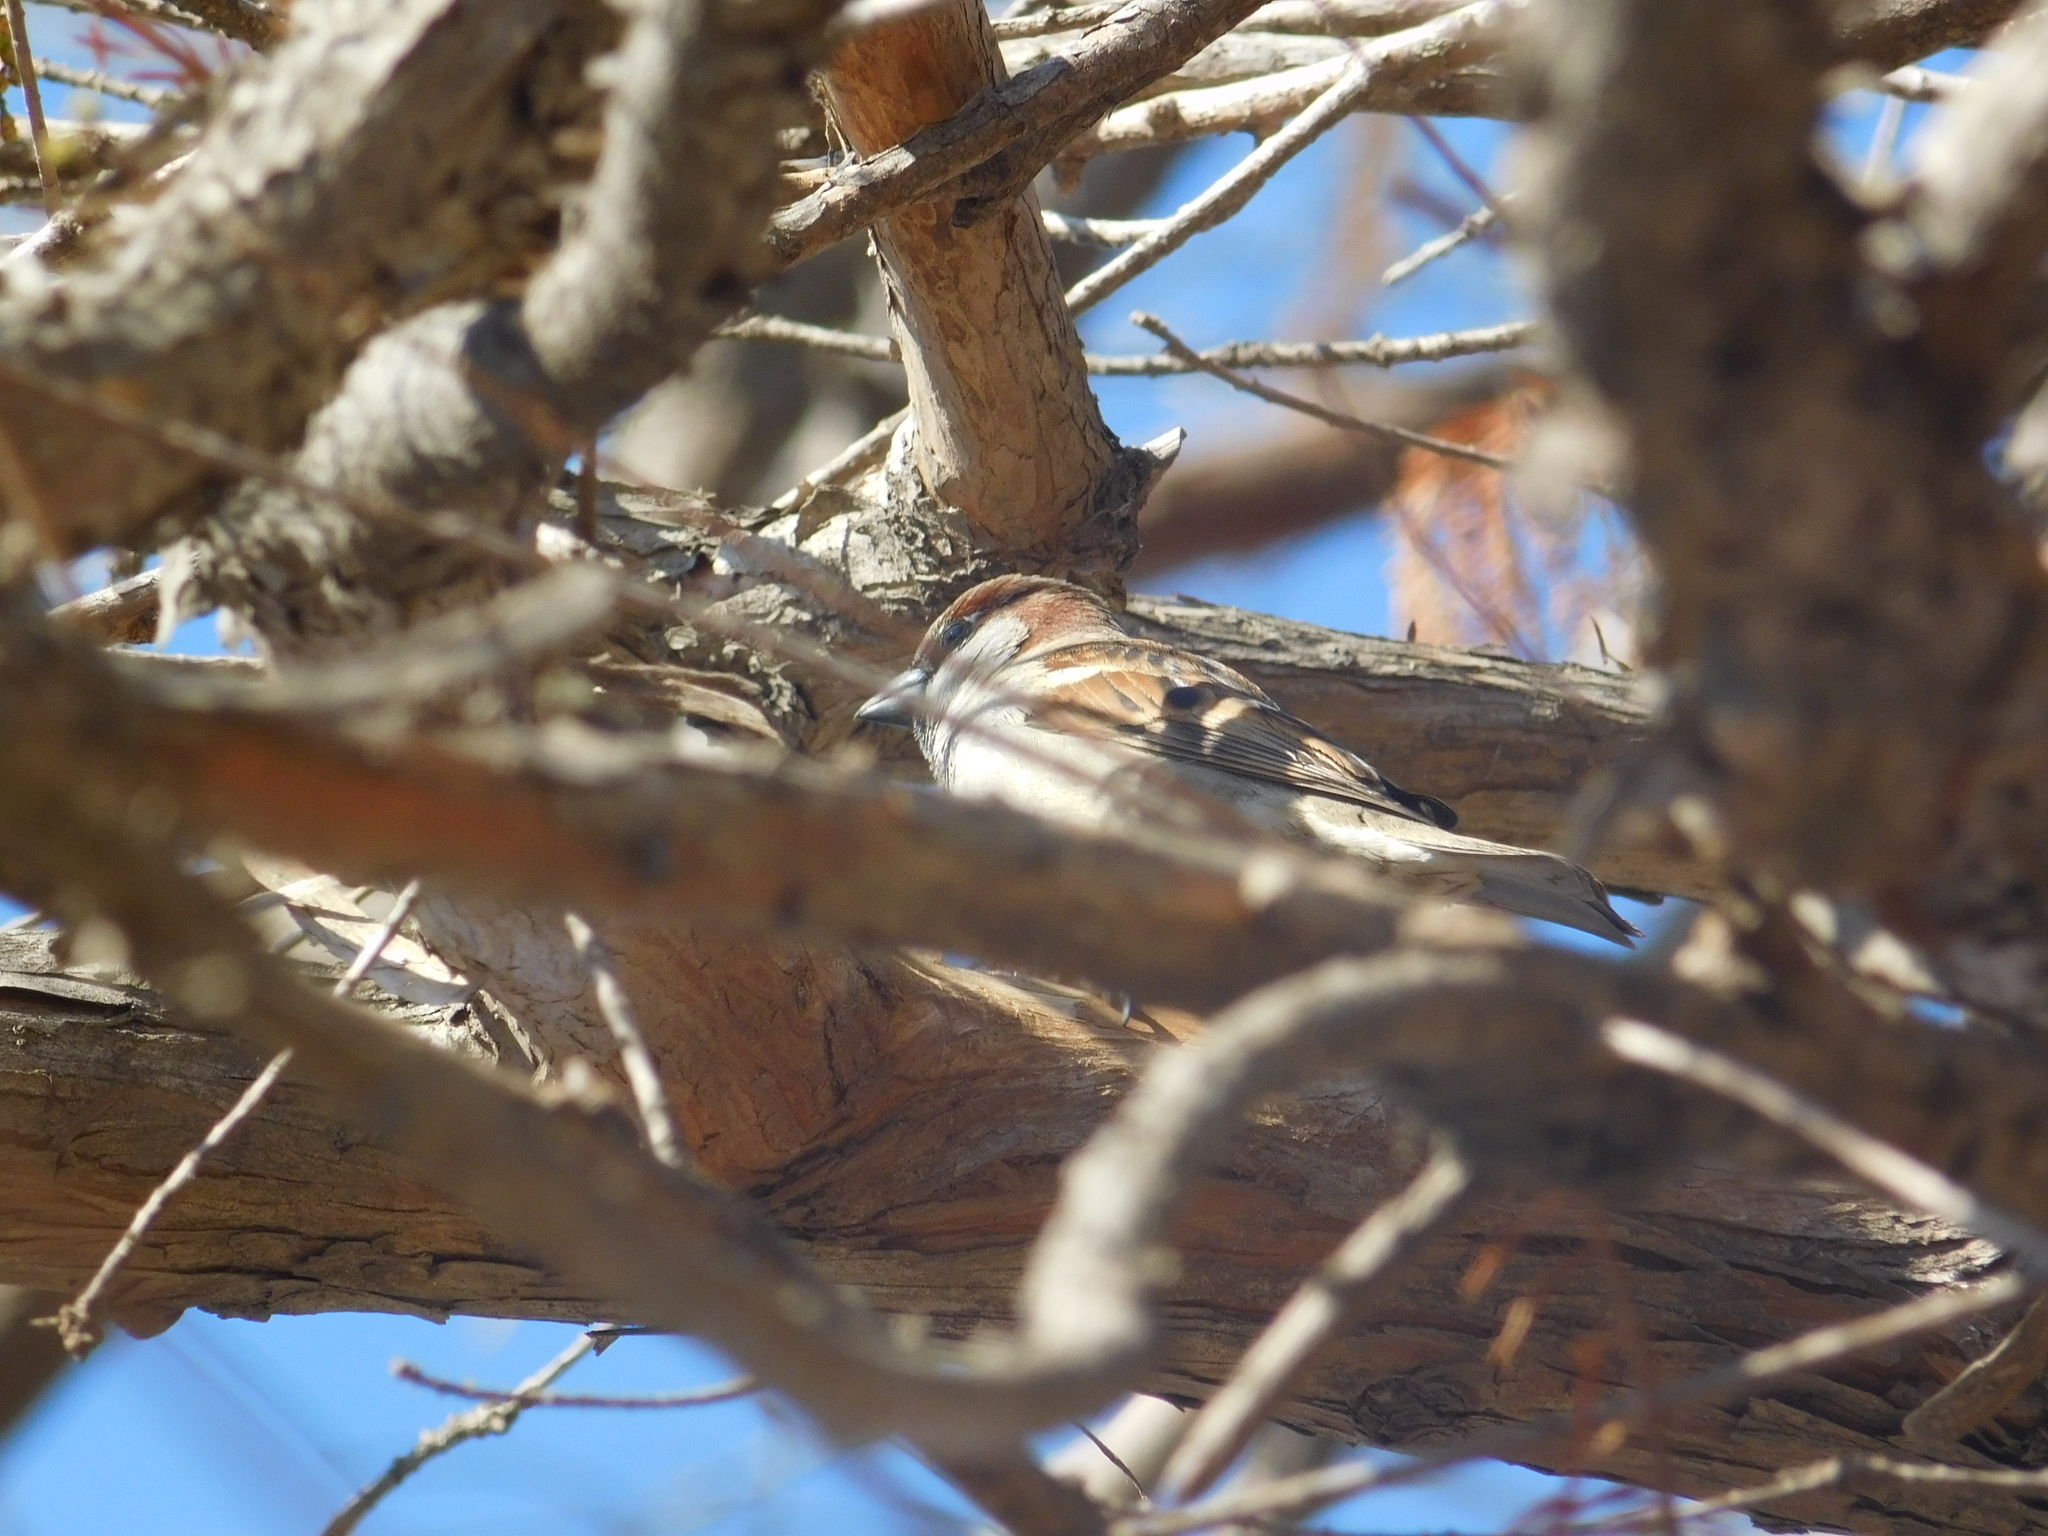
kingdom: Animalia
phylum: Chordata
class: Aves
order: Passeriformes
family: Passeridae
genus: Passer
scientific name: Passer domesticus
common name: House sparrow
